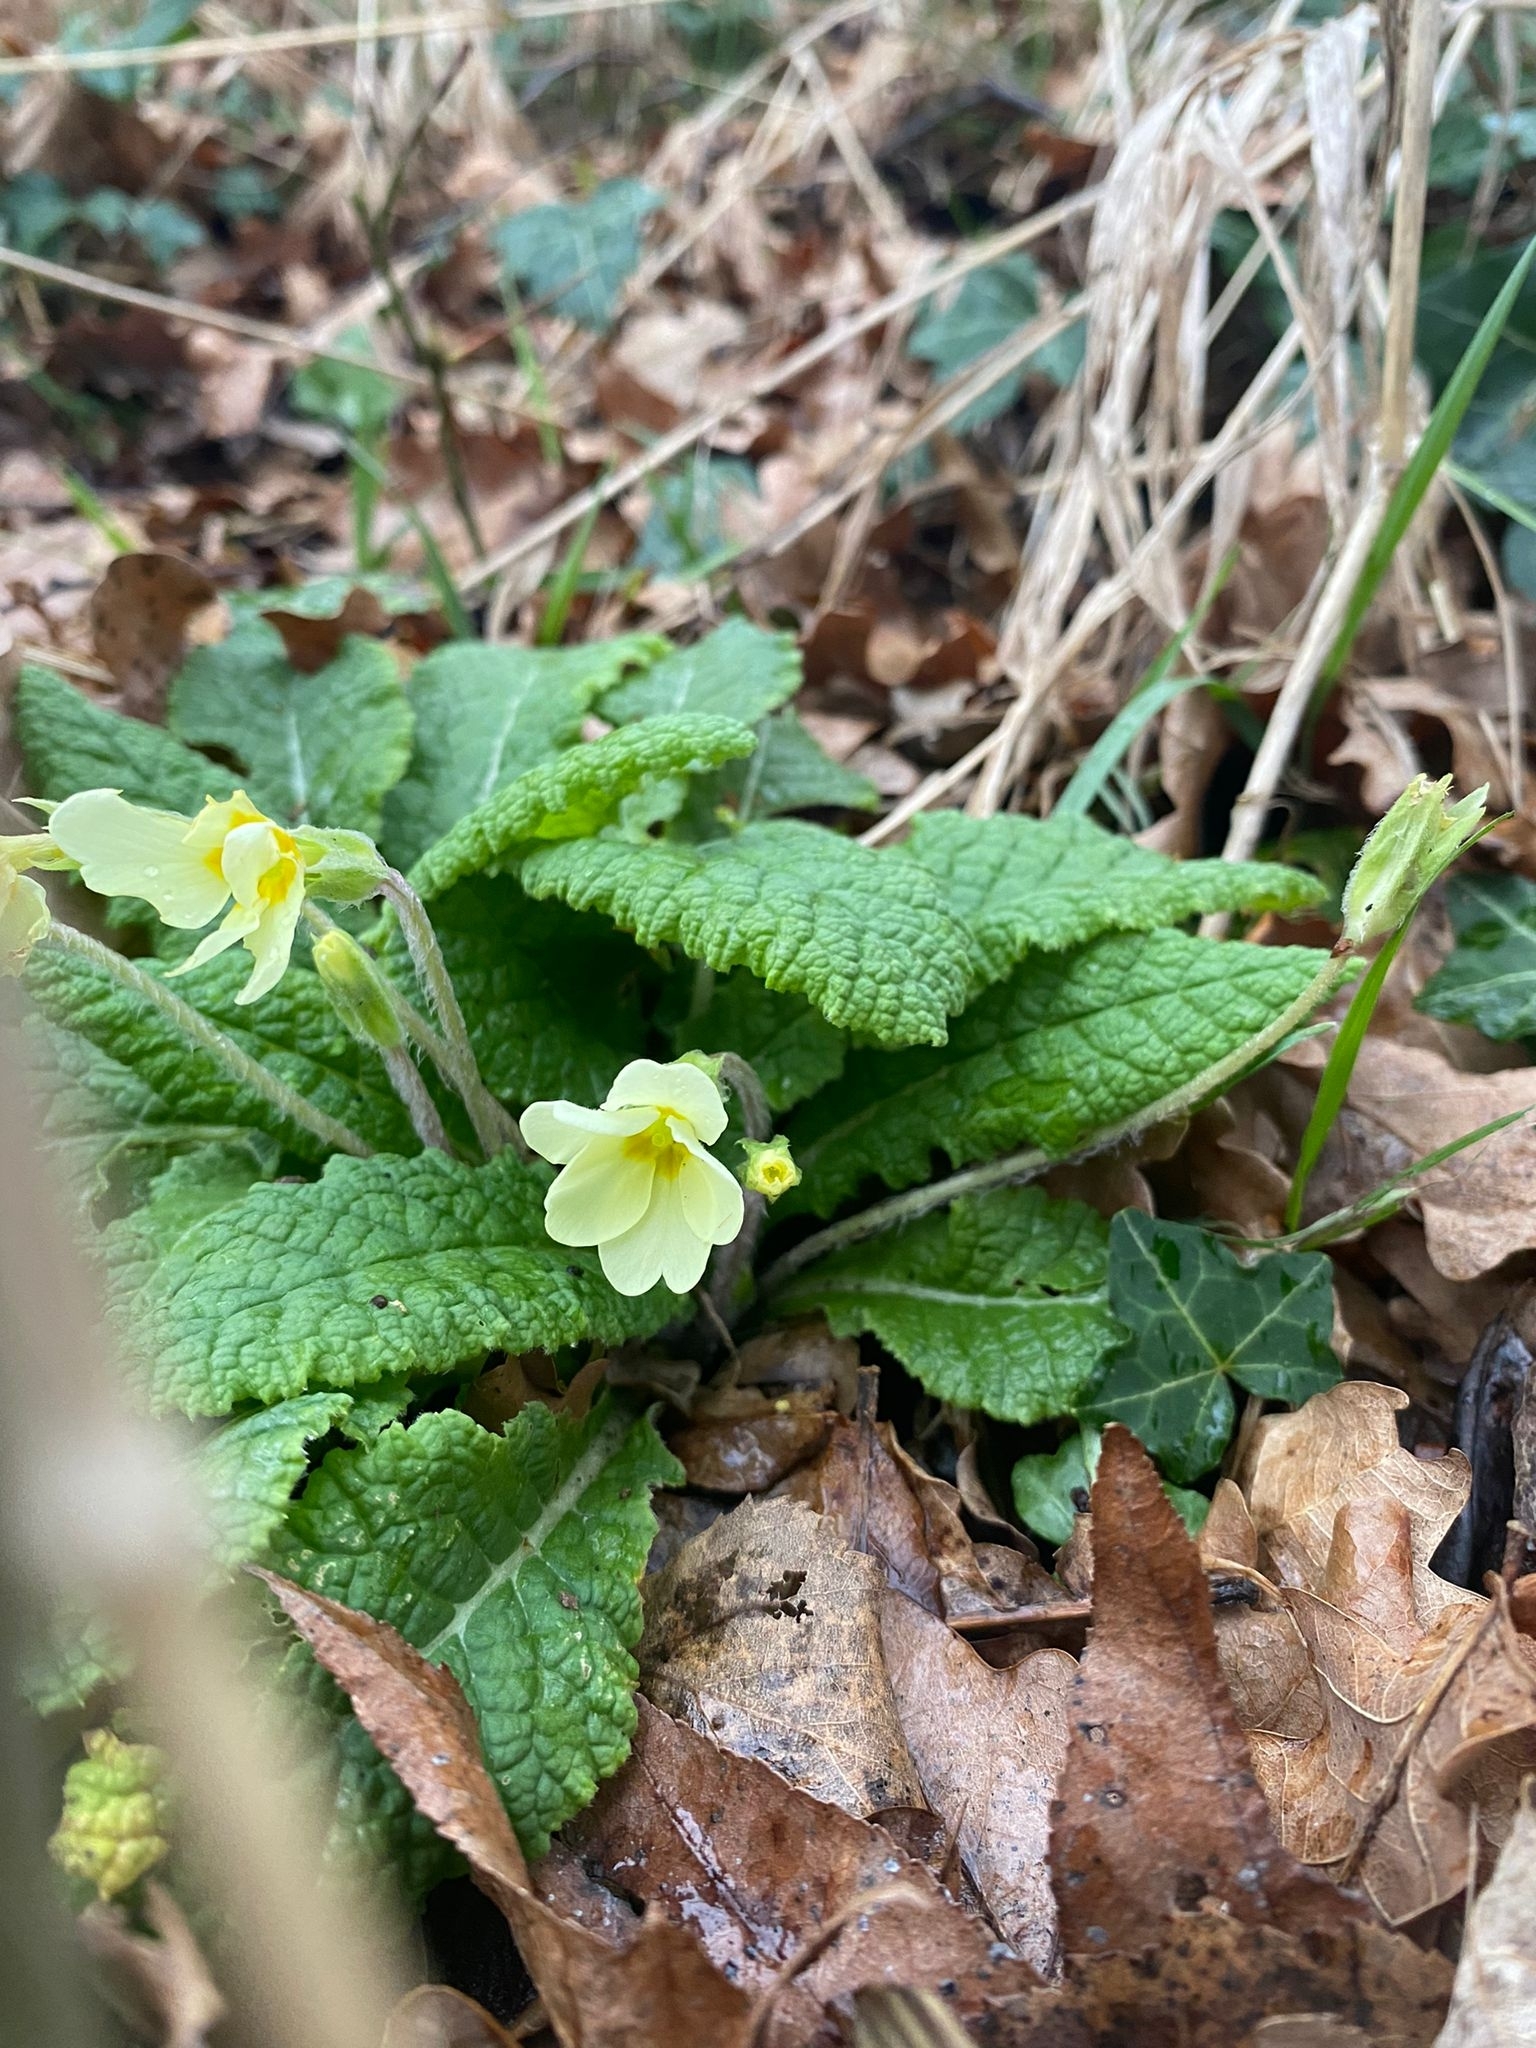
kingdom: Plantae
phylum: Tracheophyta
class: Magnoliopsida
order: Ericales
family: Primulaceae
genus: Primula
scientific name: Primula vulgaris
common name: Primrose
